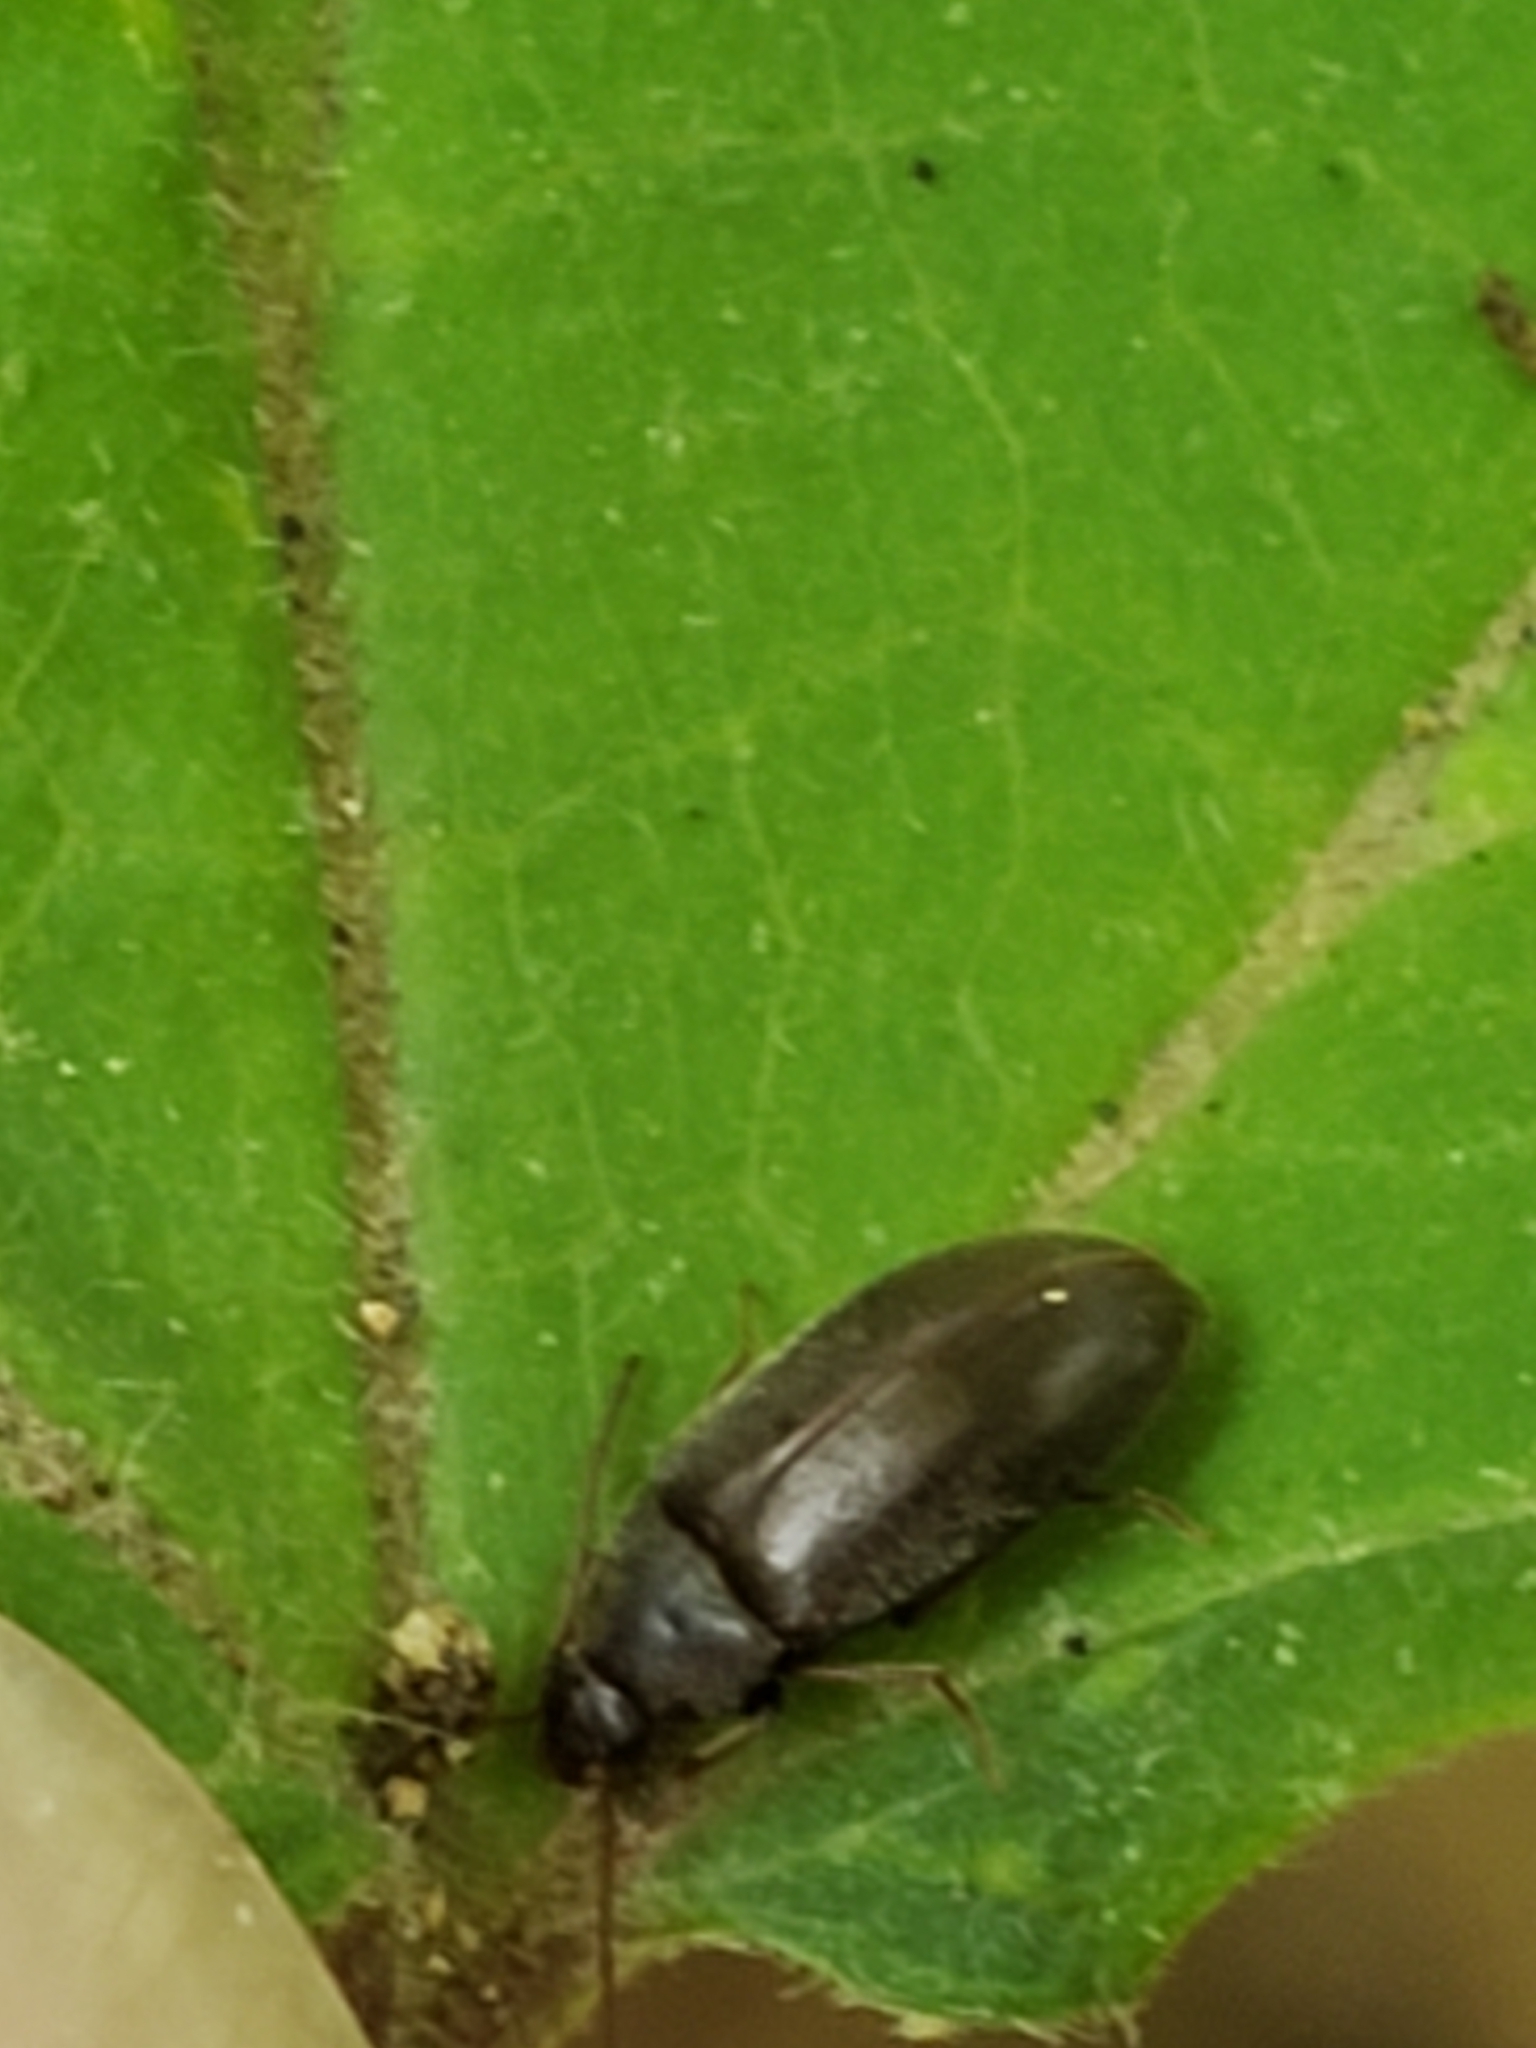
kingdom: Animalia
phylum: Arthropoda
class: Insecta
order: Coleoptera
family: Tenebrionidae
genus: Isomira
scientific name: Isomira pulla
